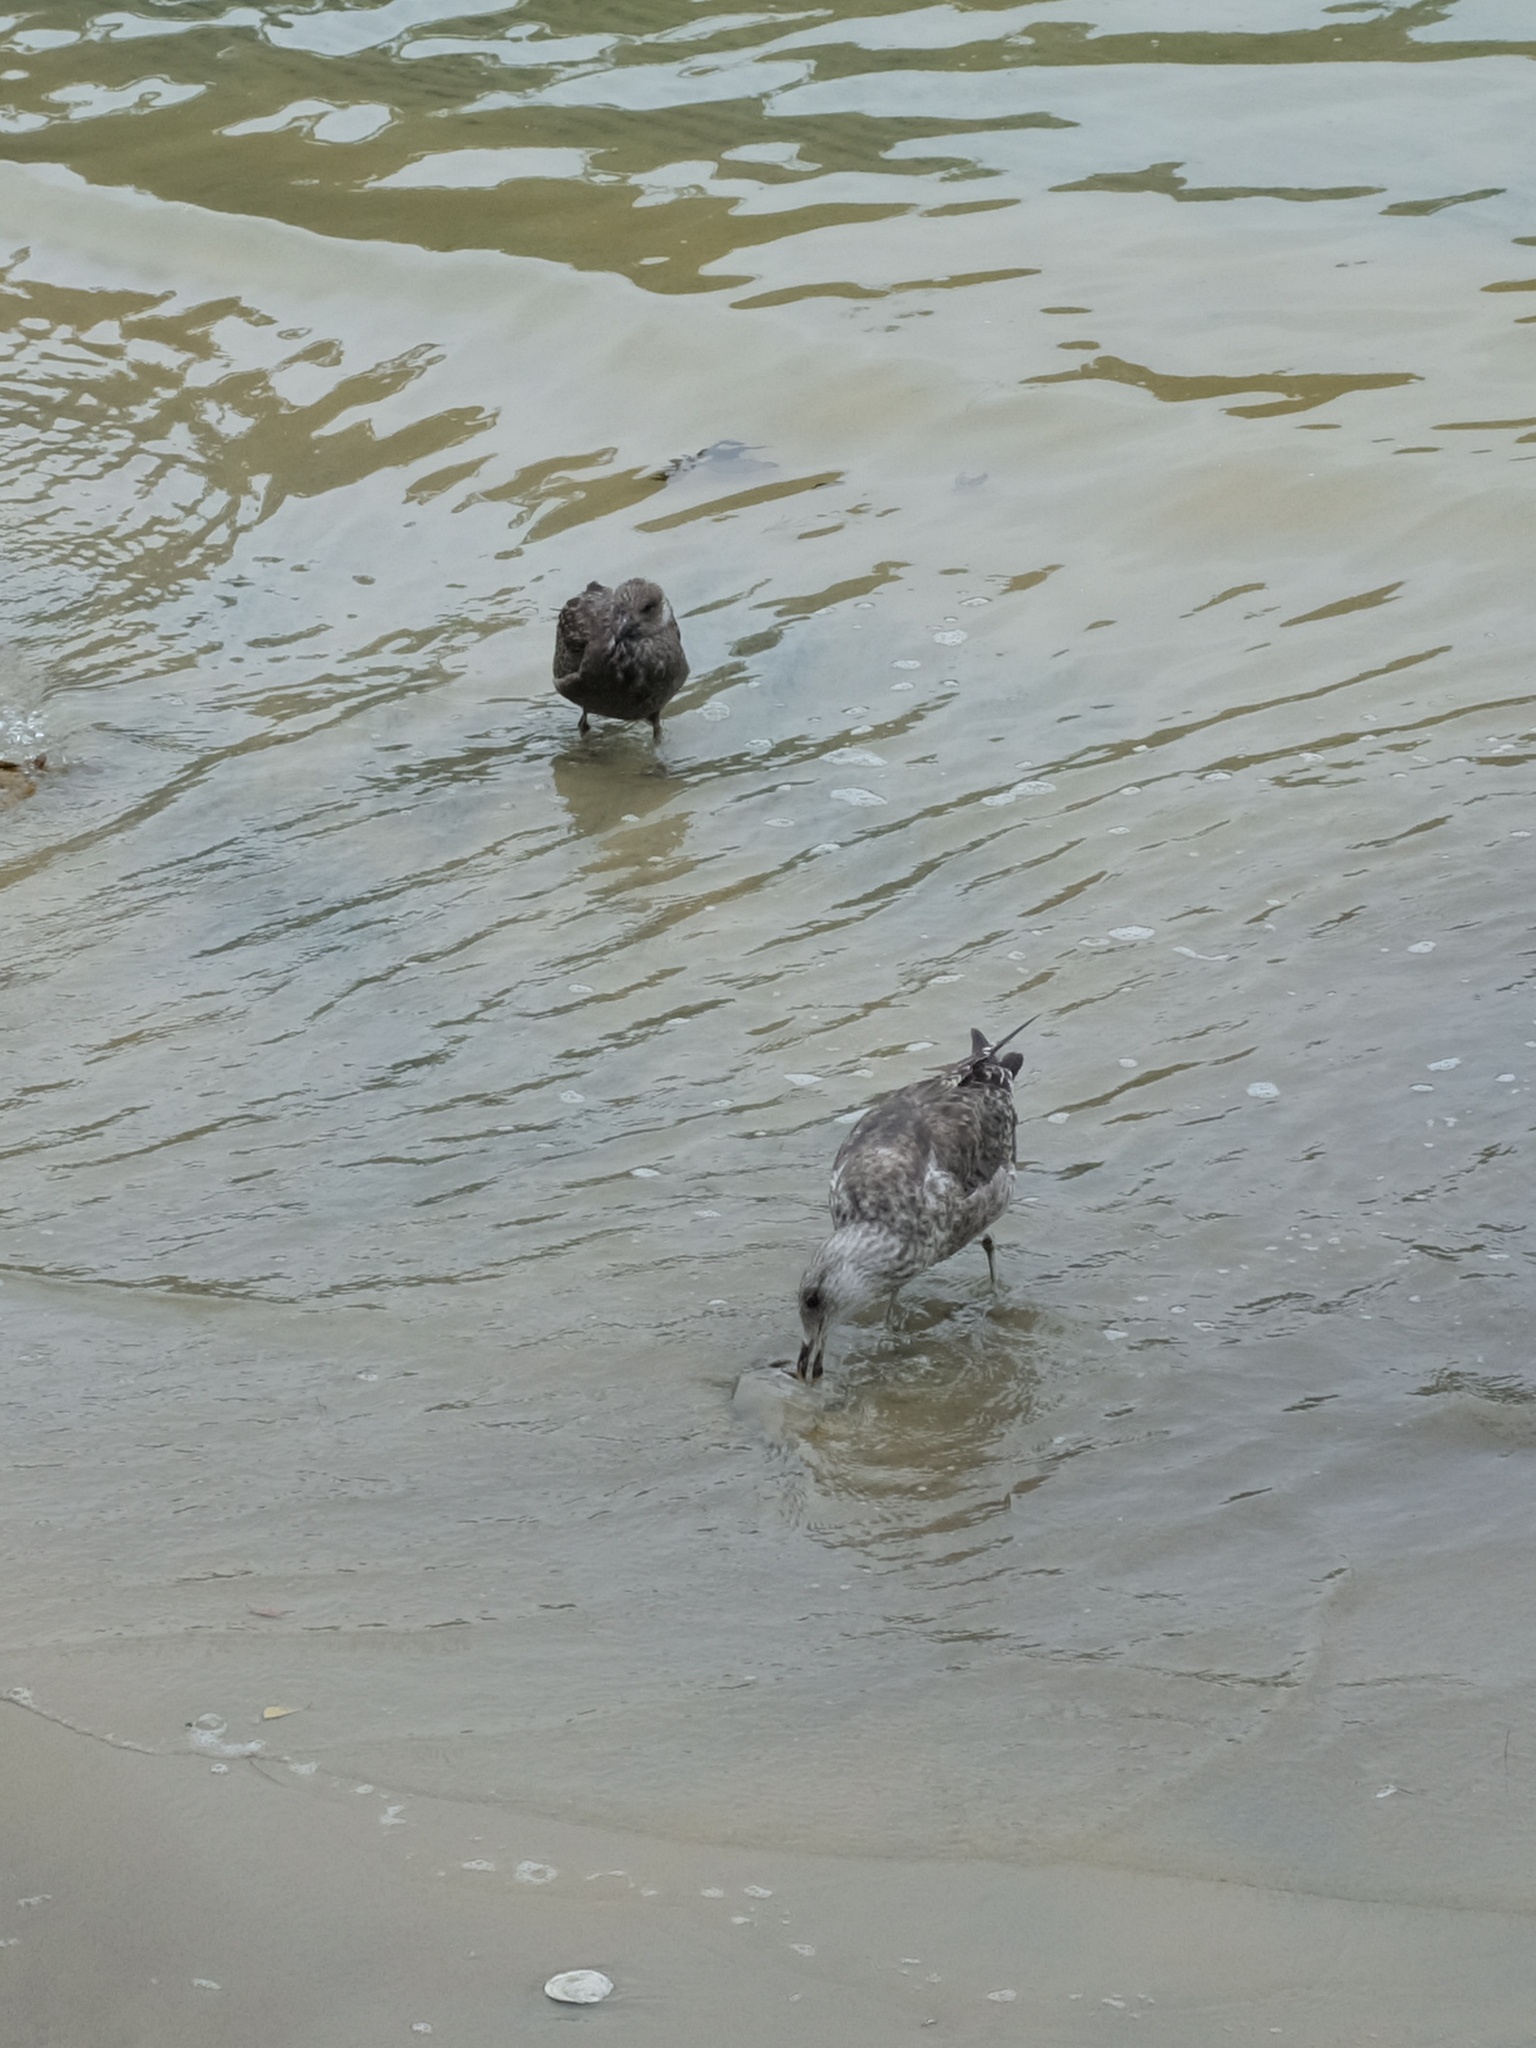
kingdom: Animalia
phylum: Chordata
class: Aves
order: Charadriiformes
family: Laridae
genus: Larus
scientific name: Larus dominicanus
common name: Kelp gull
